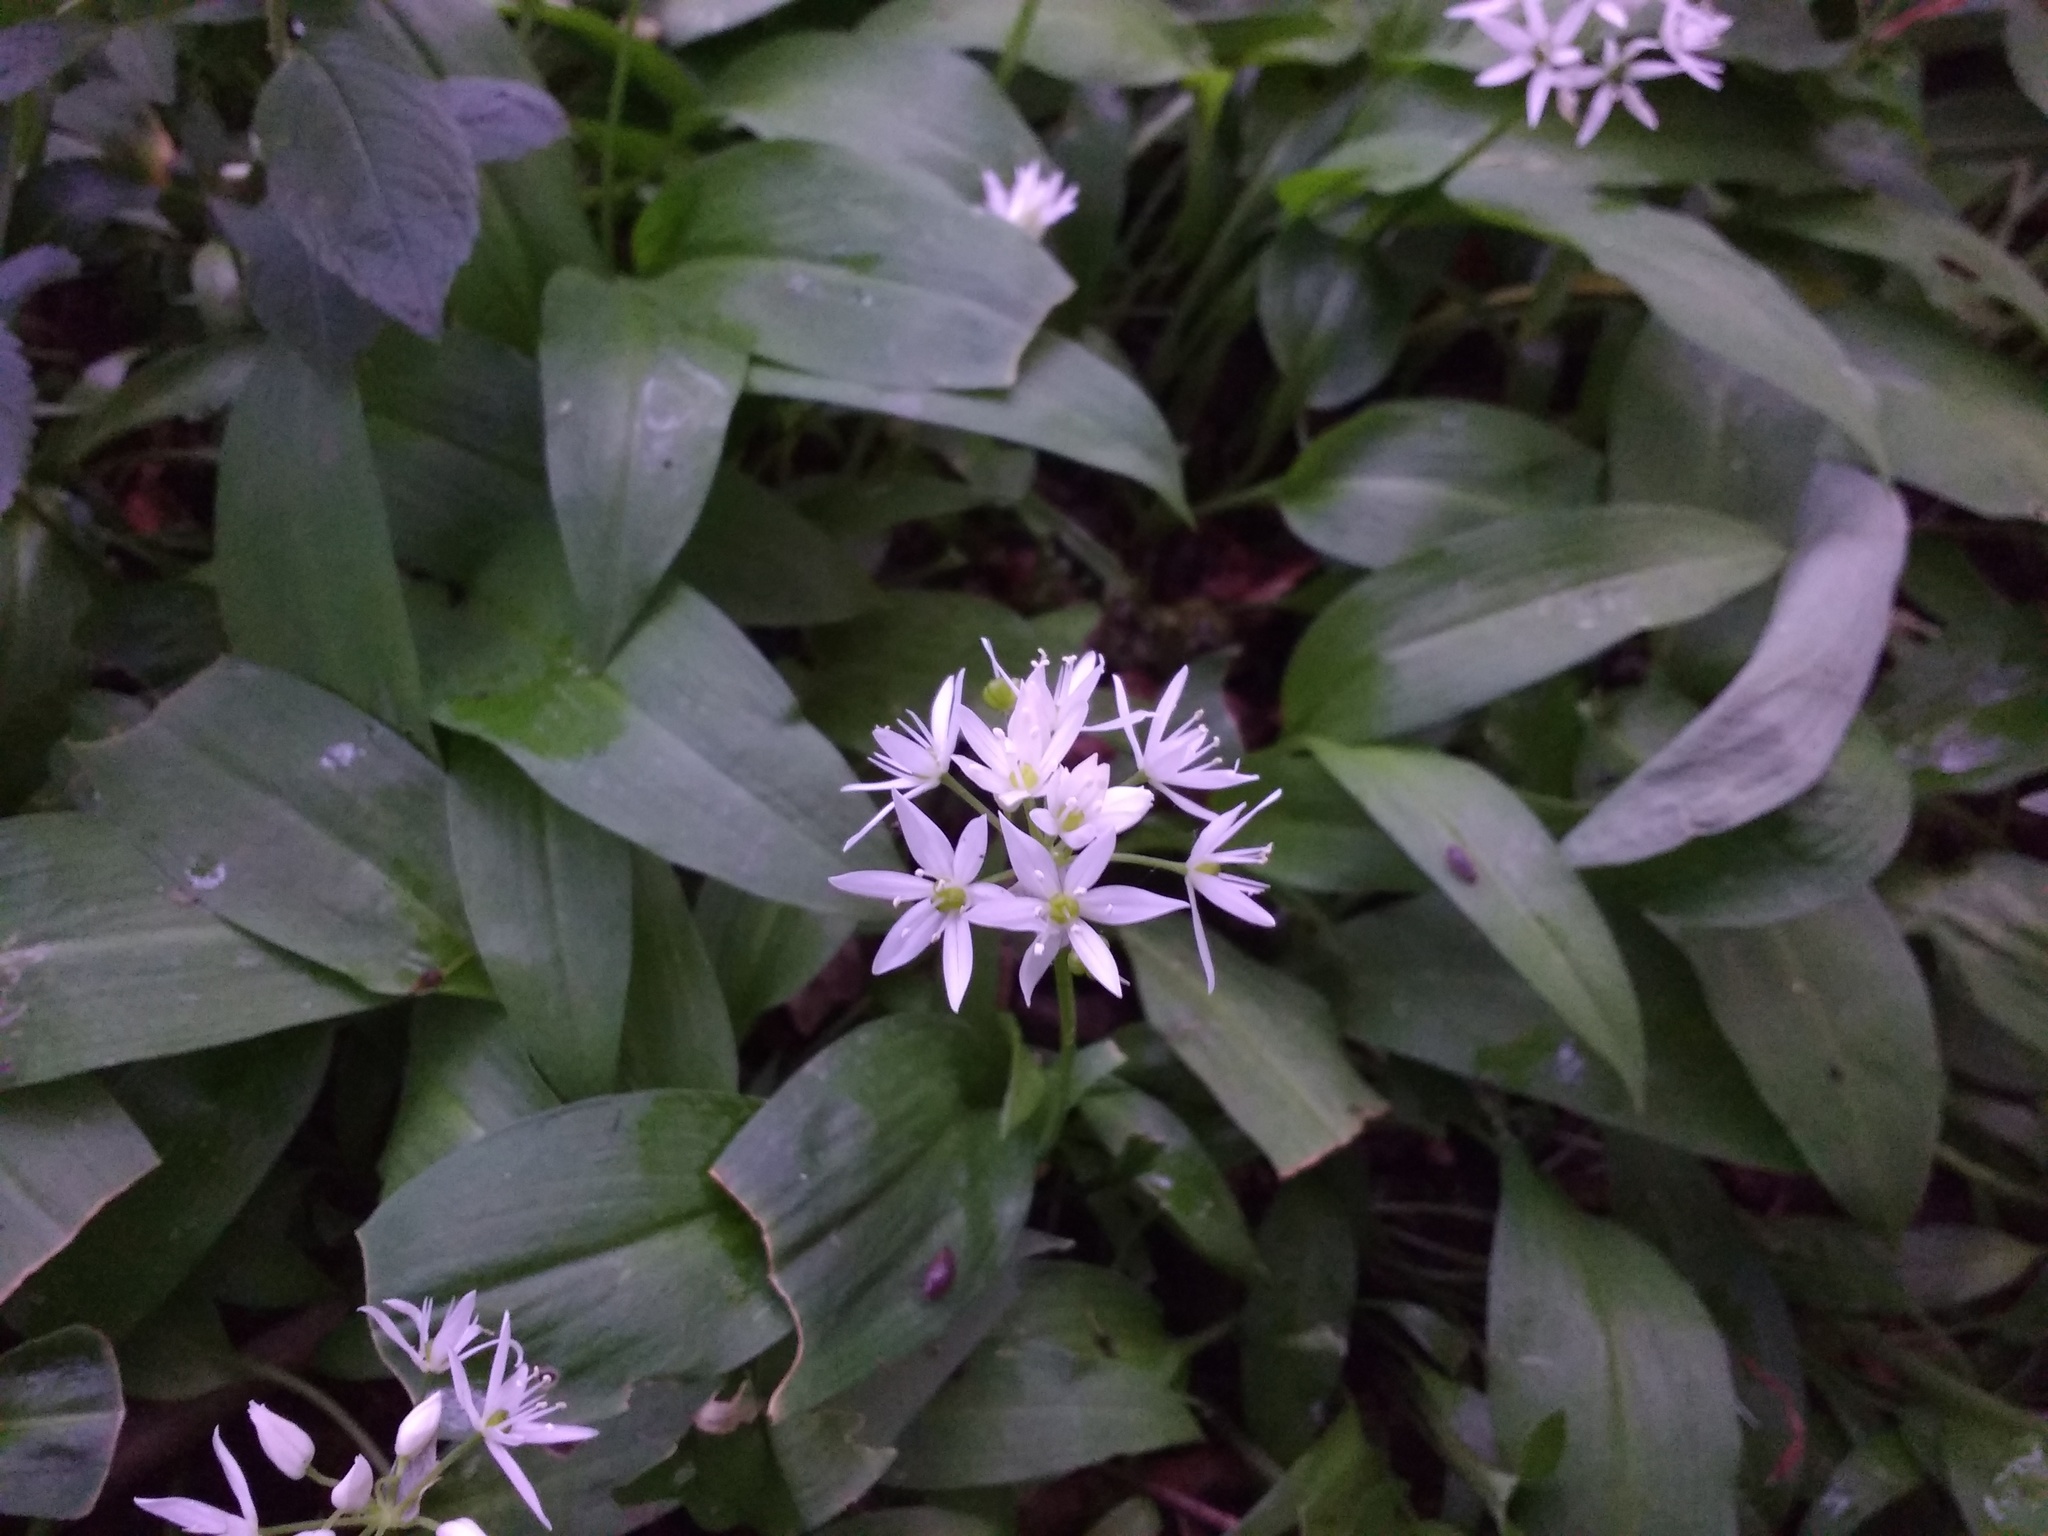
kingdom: Plantae
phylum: Tracheophyta
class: Liliopsida
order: Asparagales
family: Amaryllidaceae
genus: Allium
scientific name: Allium ursinum
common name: Ramsons
